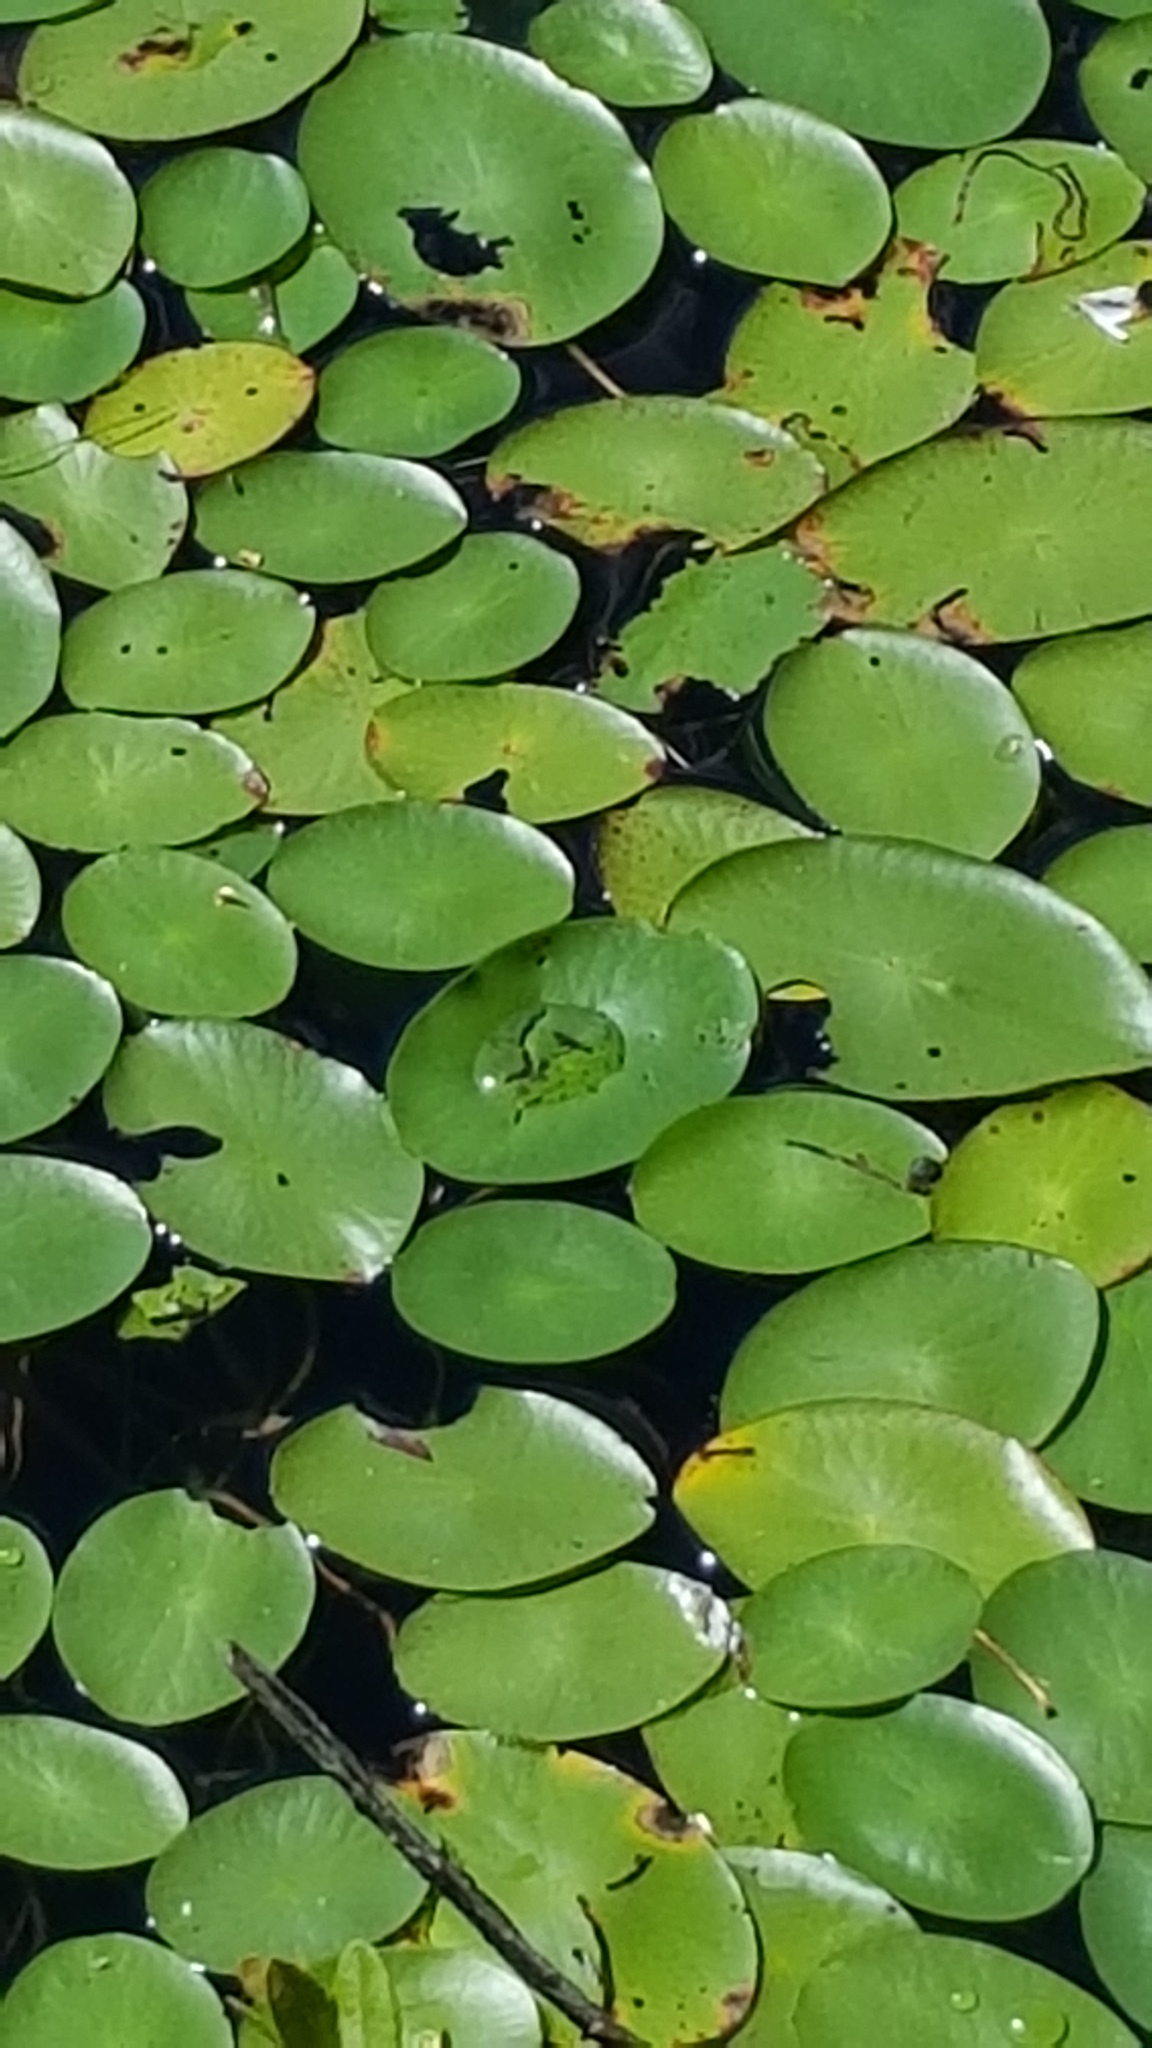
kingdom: Plantae
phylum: Tracheophyta
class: Magnoliopsida
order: Nymphaeales
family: Cabombaceae
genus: Brasenia
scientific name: Brasenia schreberi
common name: Water-shield
